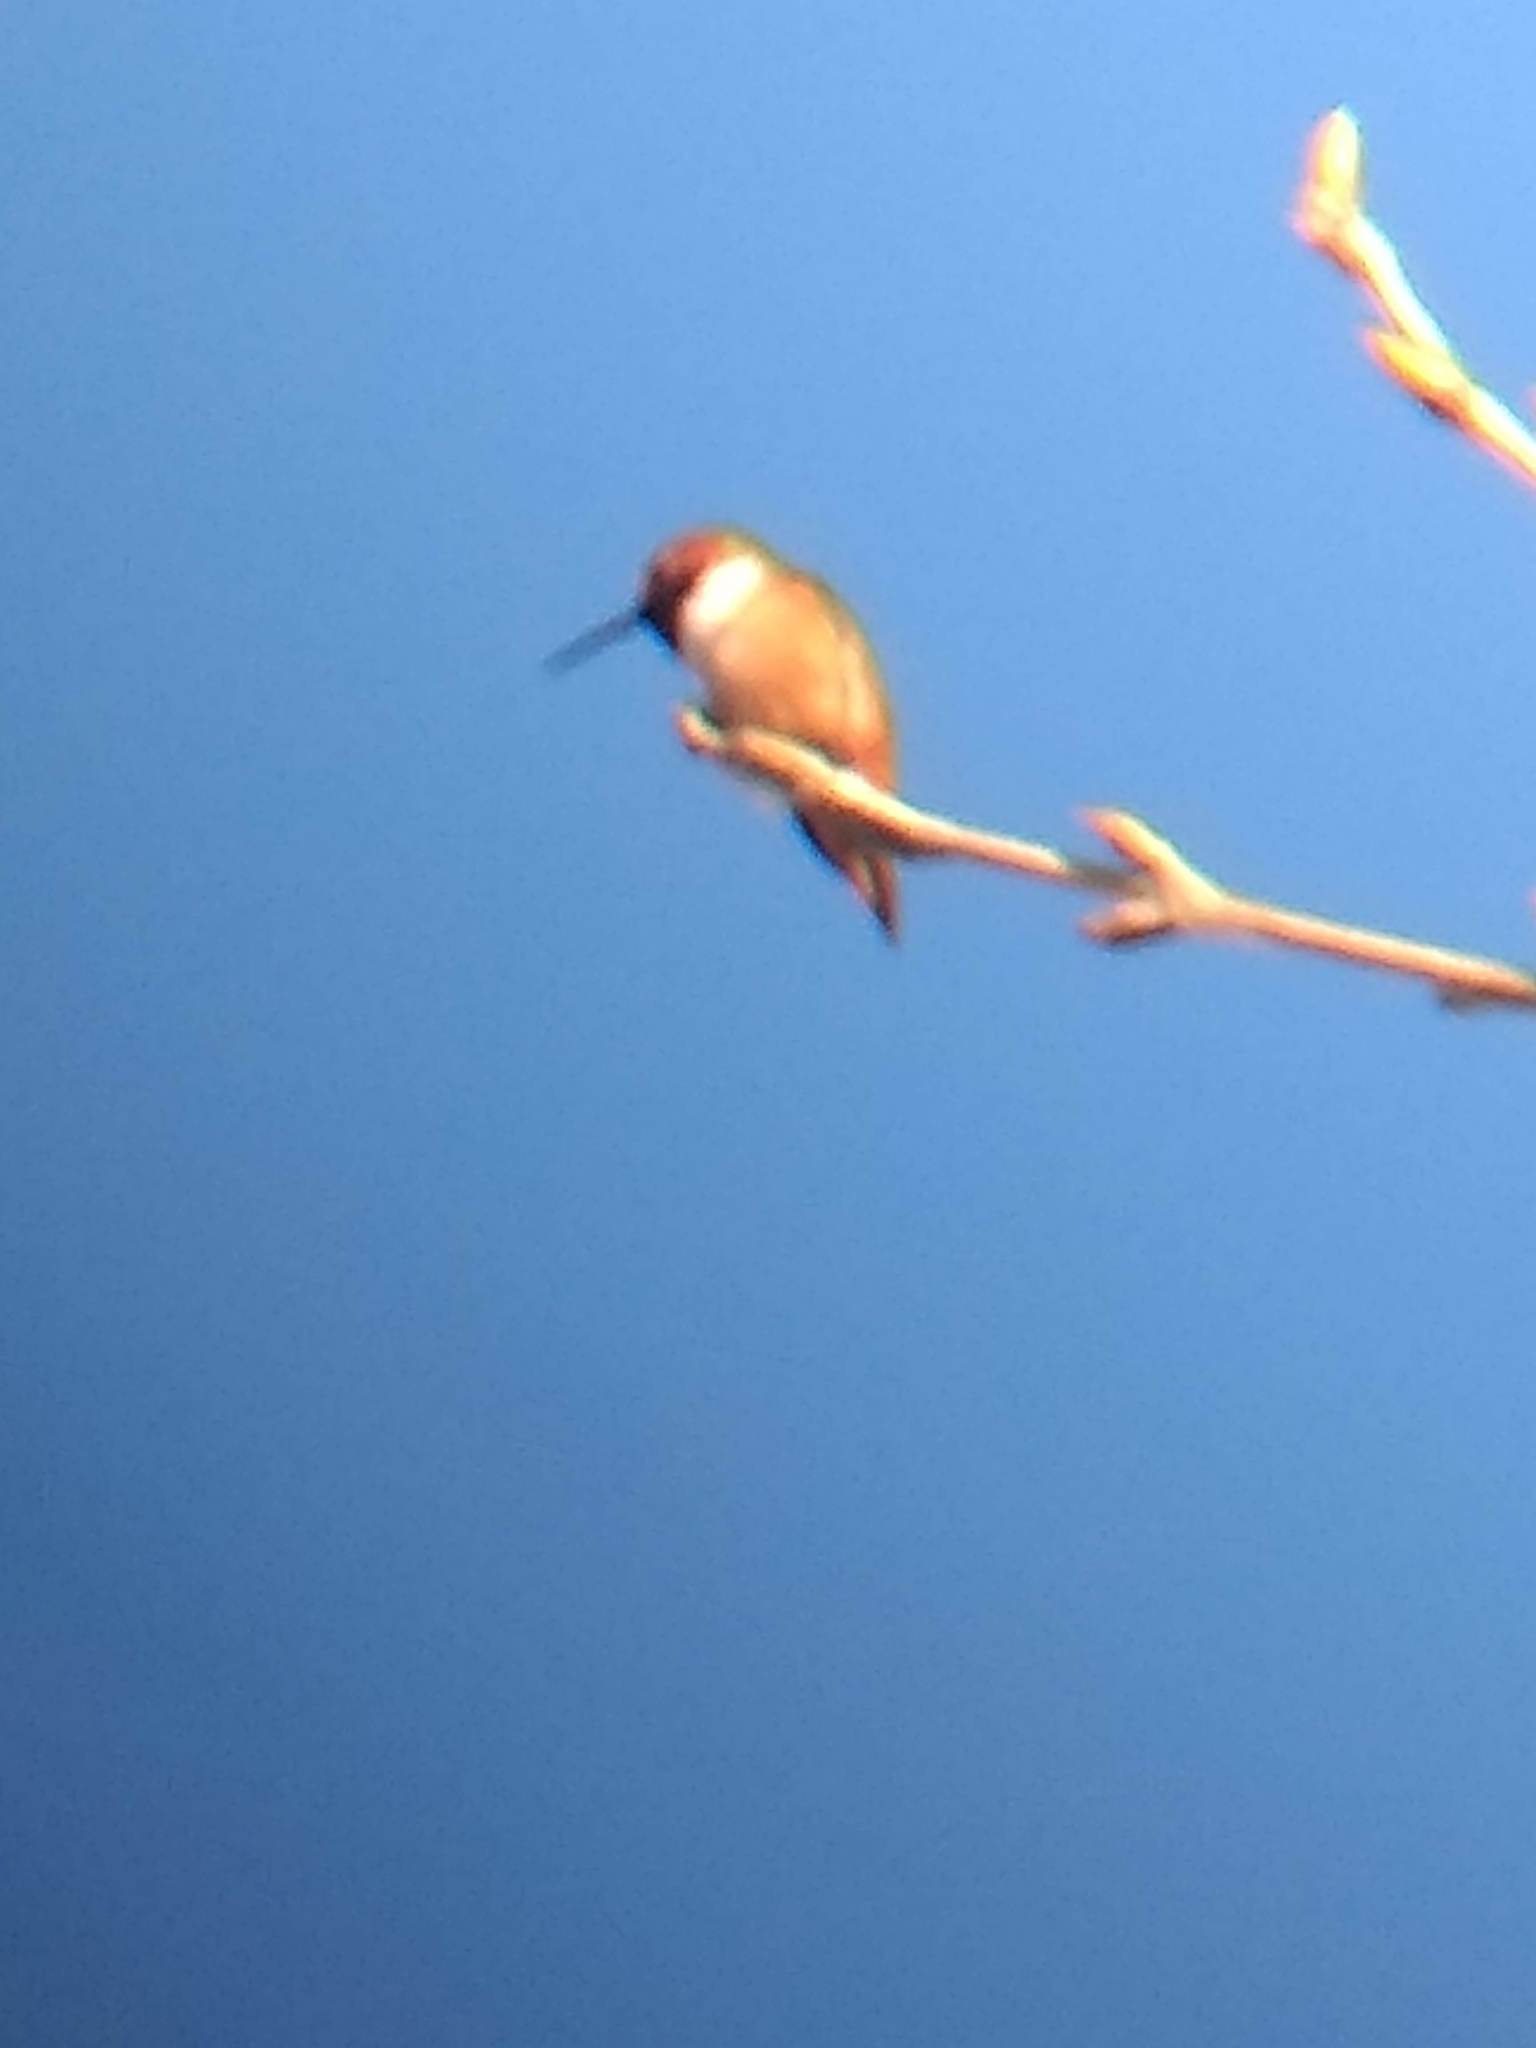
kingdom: Animalia
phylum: Chordata
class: Aves
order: Apodiformes
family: Trochilidae
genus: Selasphorus
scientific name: Selasphorus
